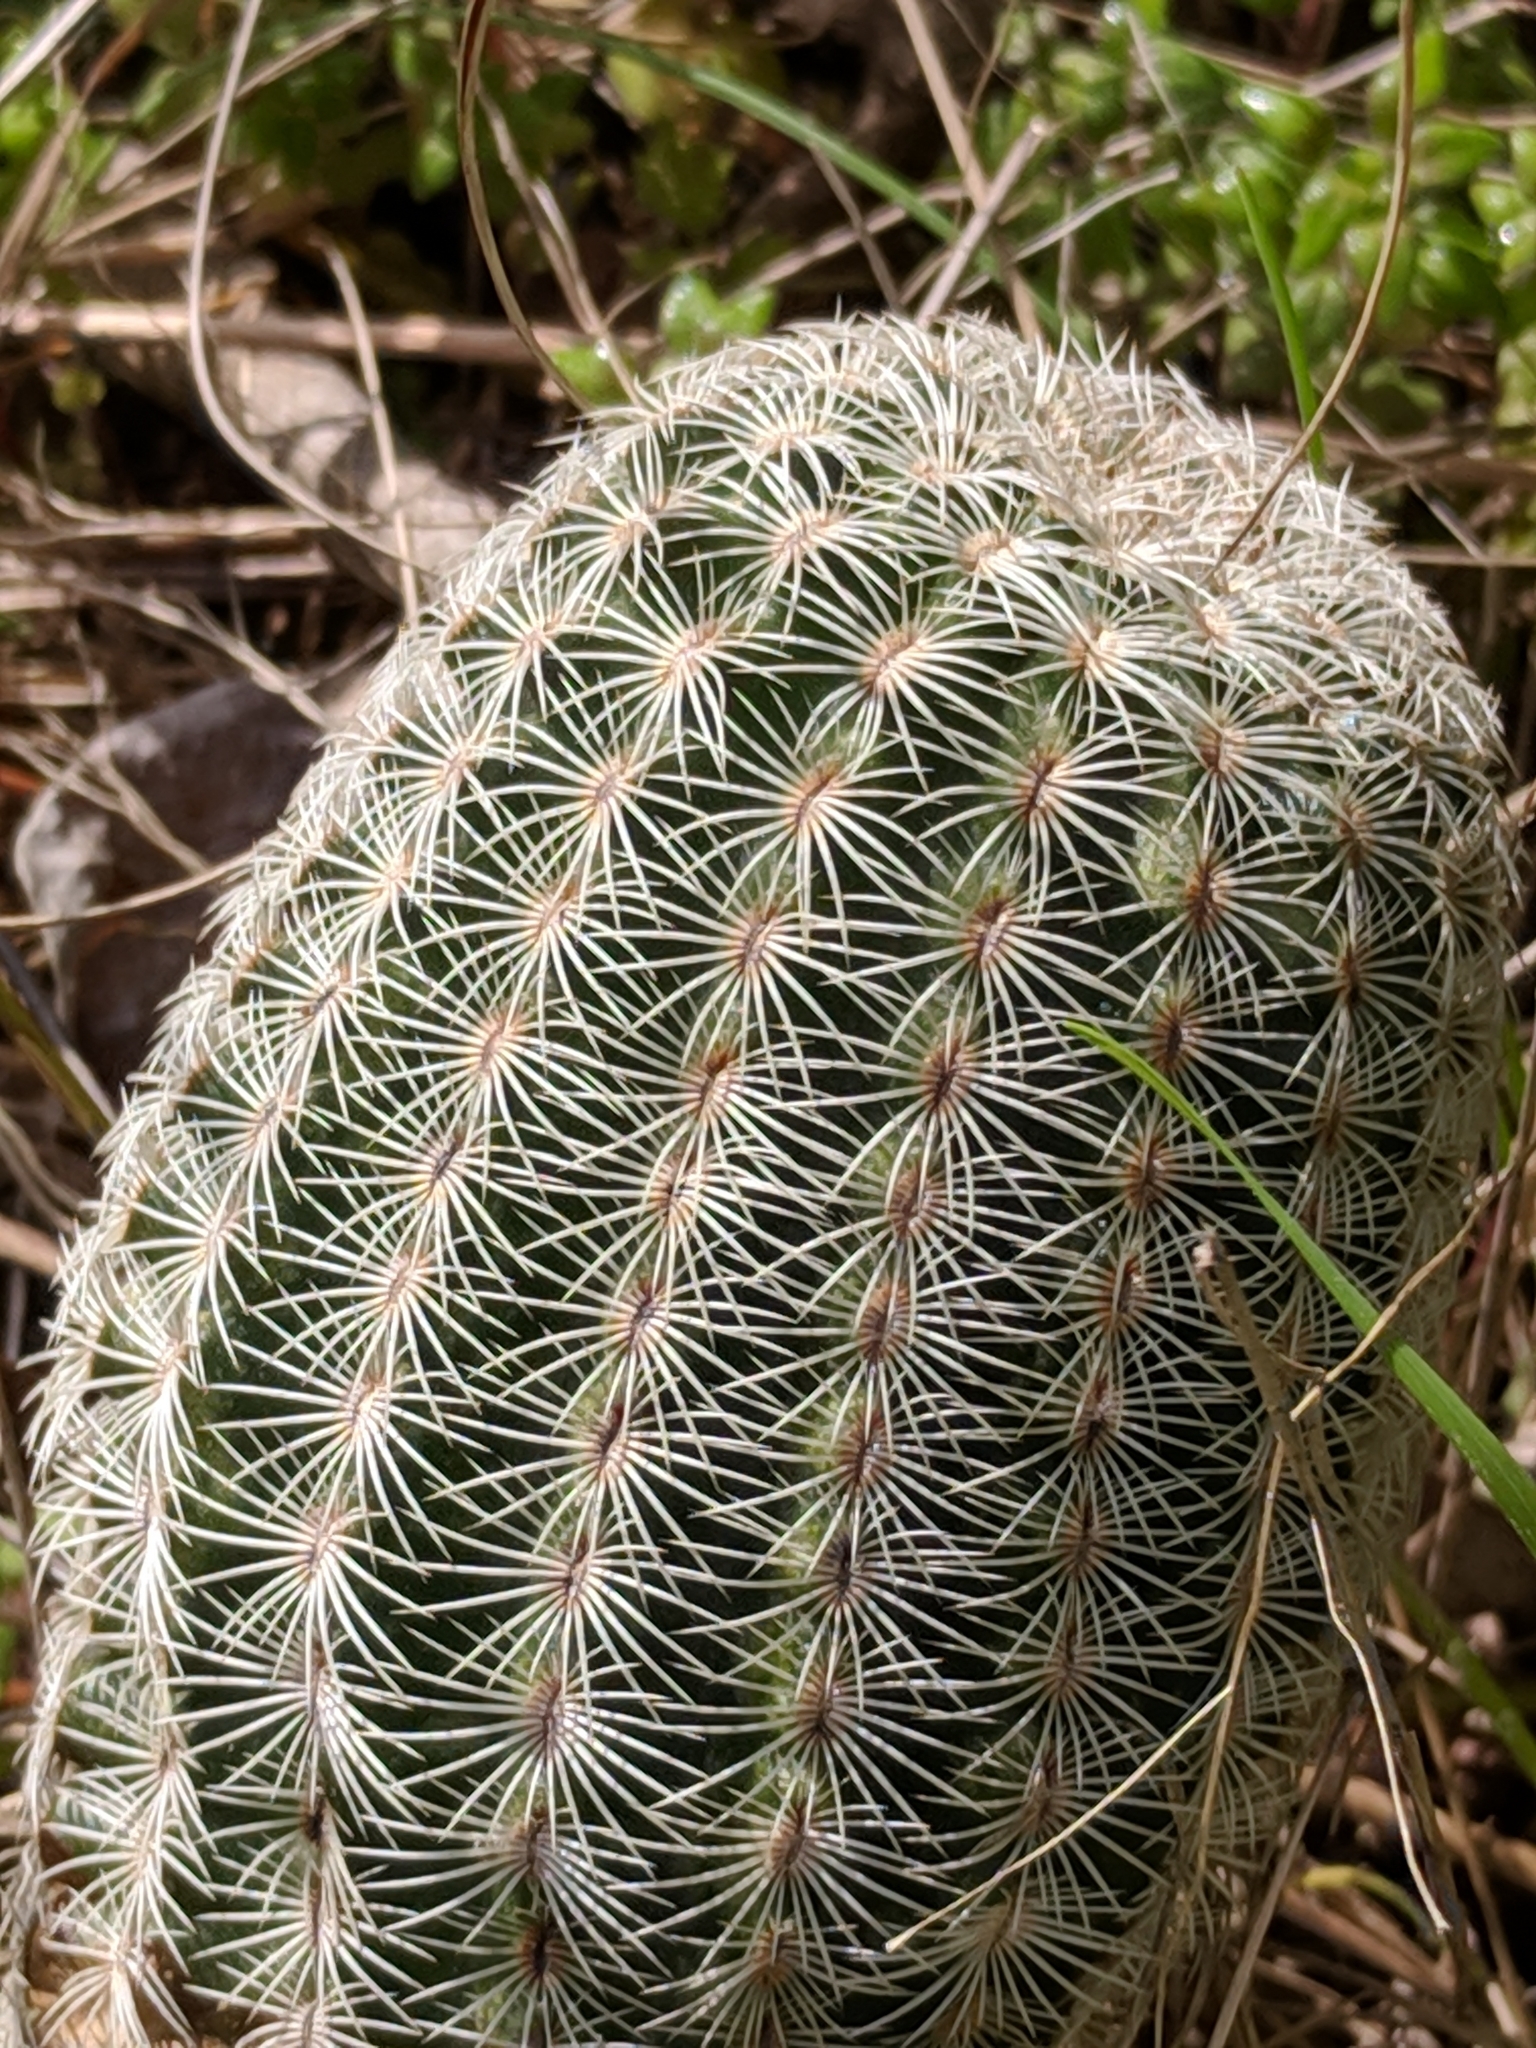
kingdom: Plantae
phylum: Tracheophyta
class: Magnoliopsida
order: Caryophyllales
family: Cactaceae
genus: Echinocereus
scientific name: Echinocereus reichenbachii
